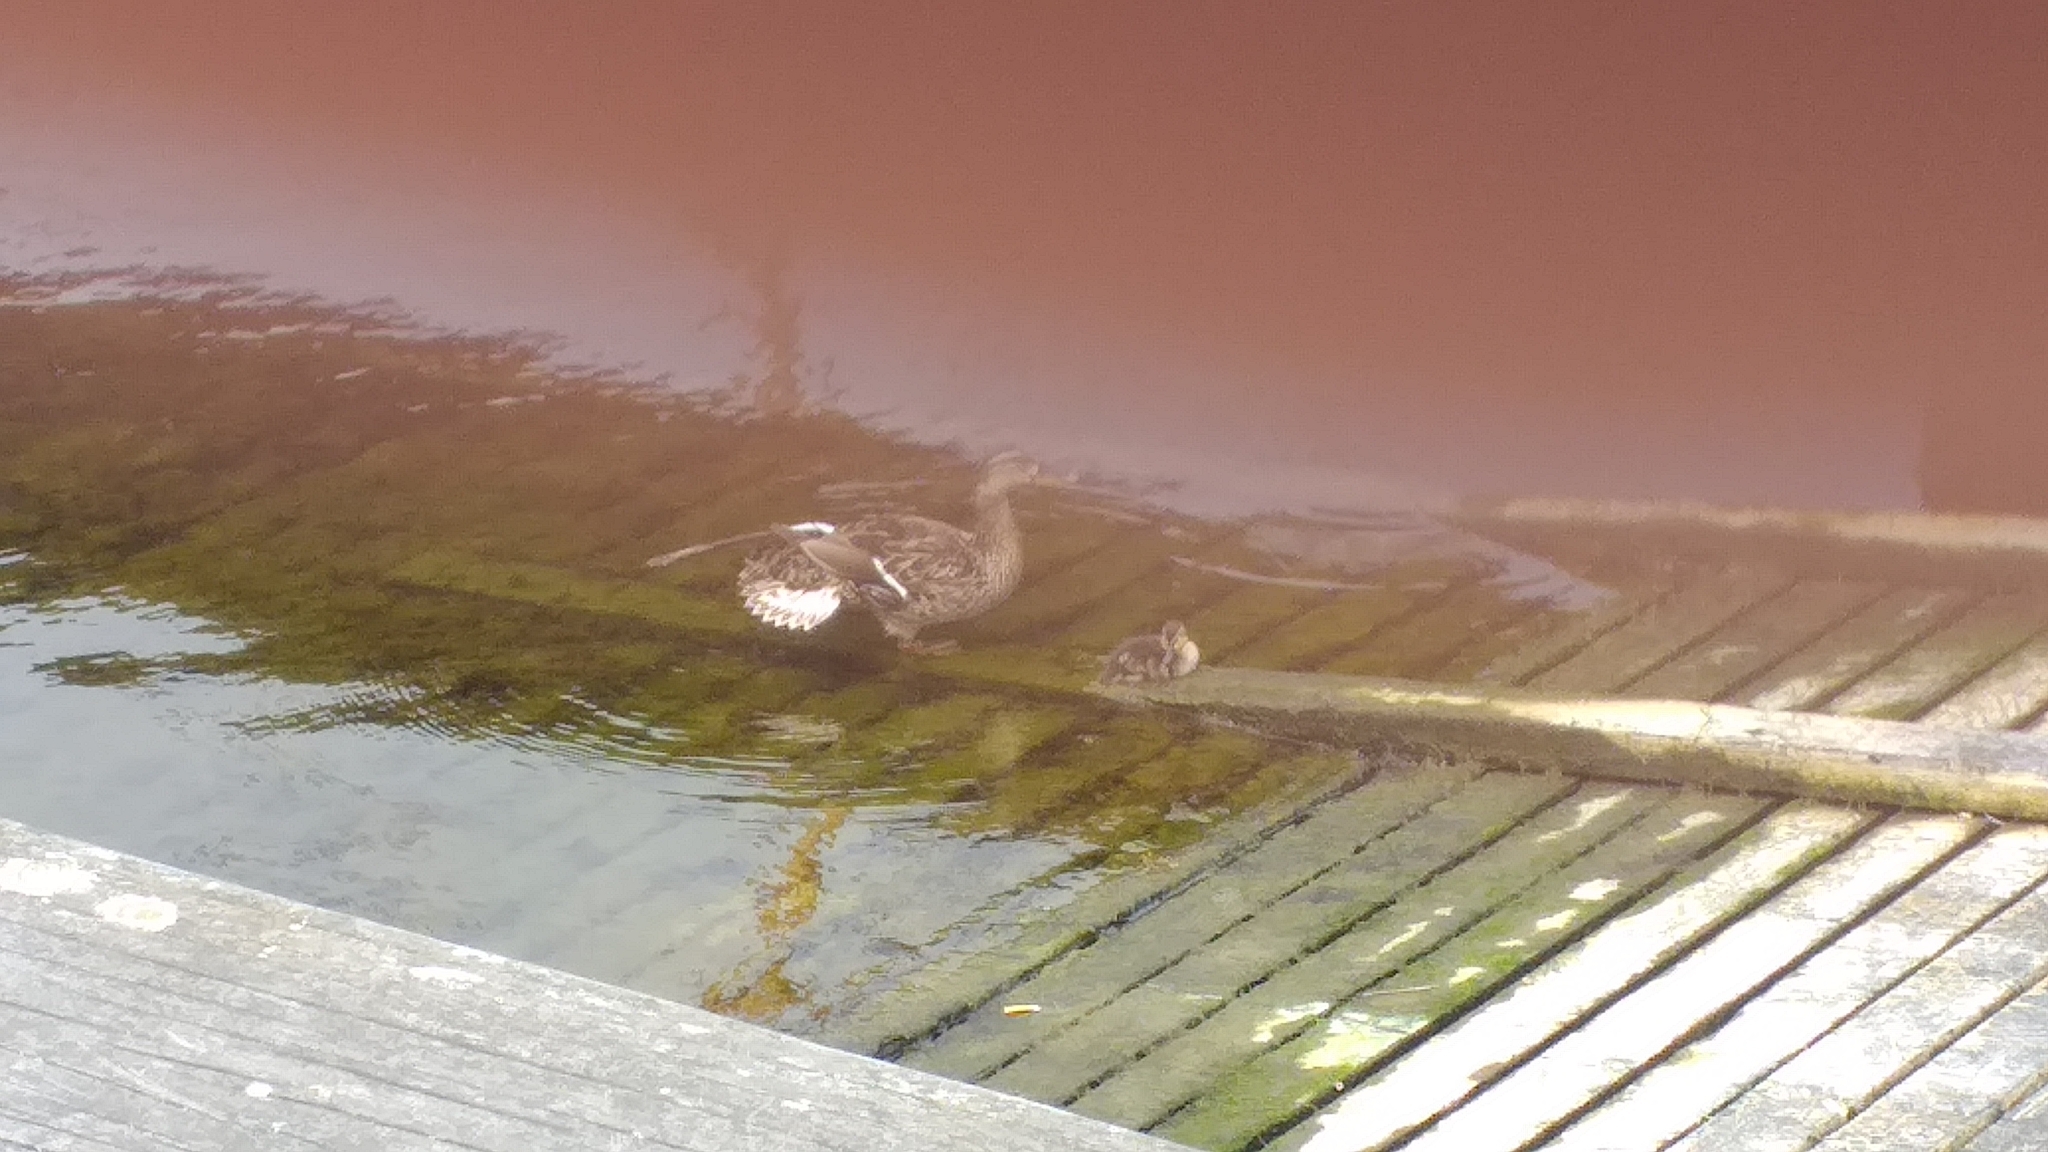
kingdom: Animalia
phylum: Chordata
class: Aves
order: Anseriformes
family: Anatidae
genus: Anas
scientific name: Anas platyrhynchos
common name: Mallard
